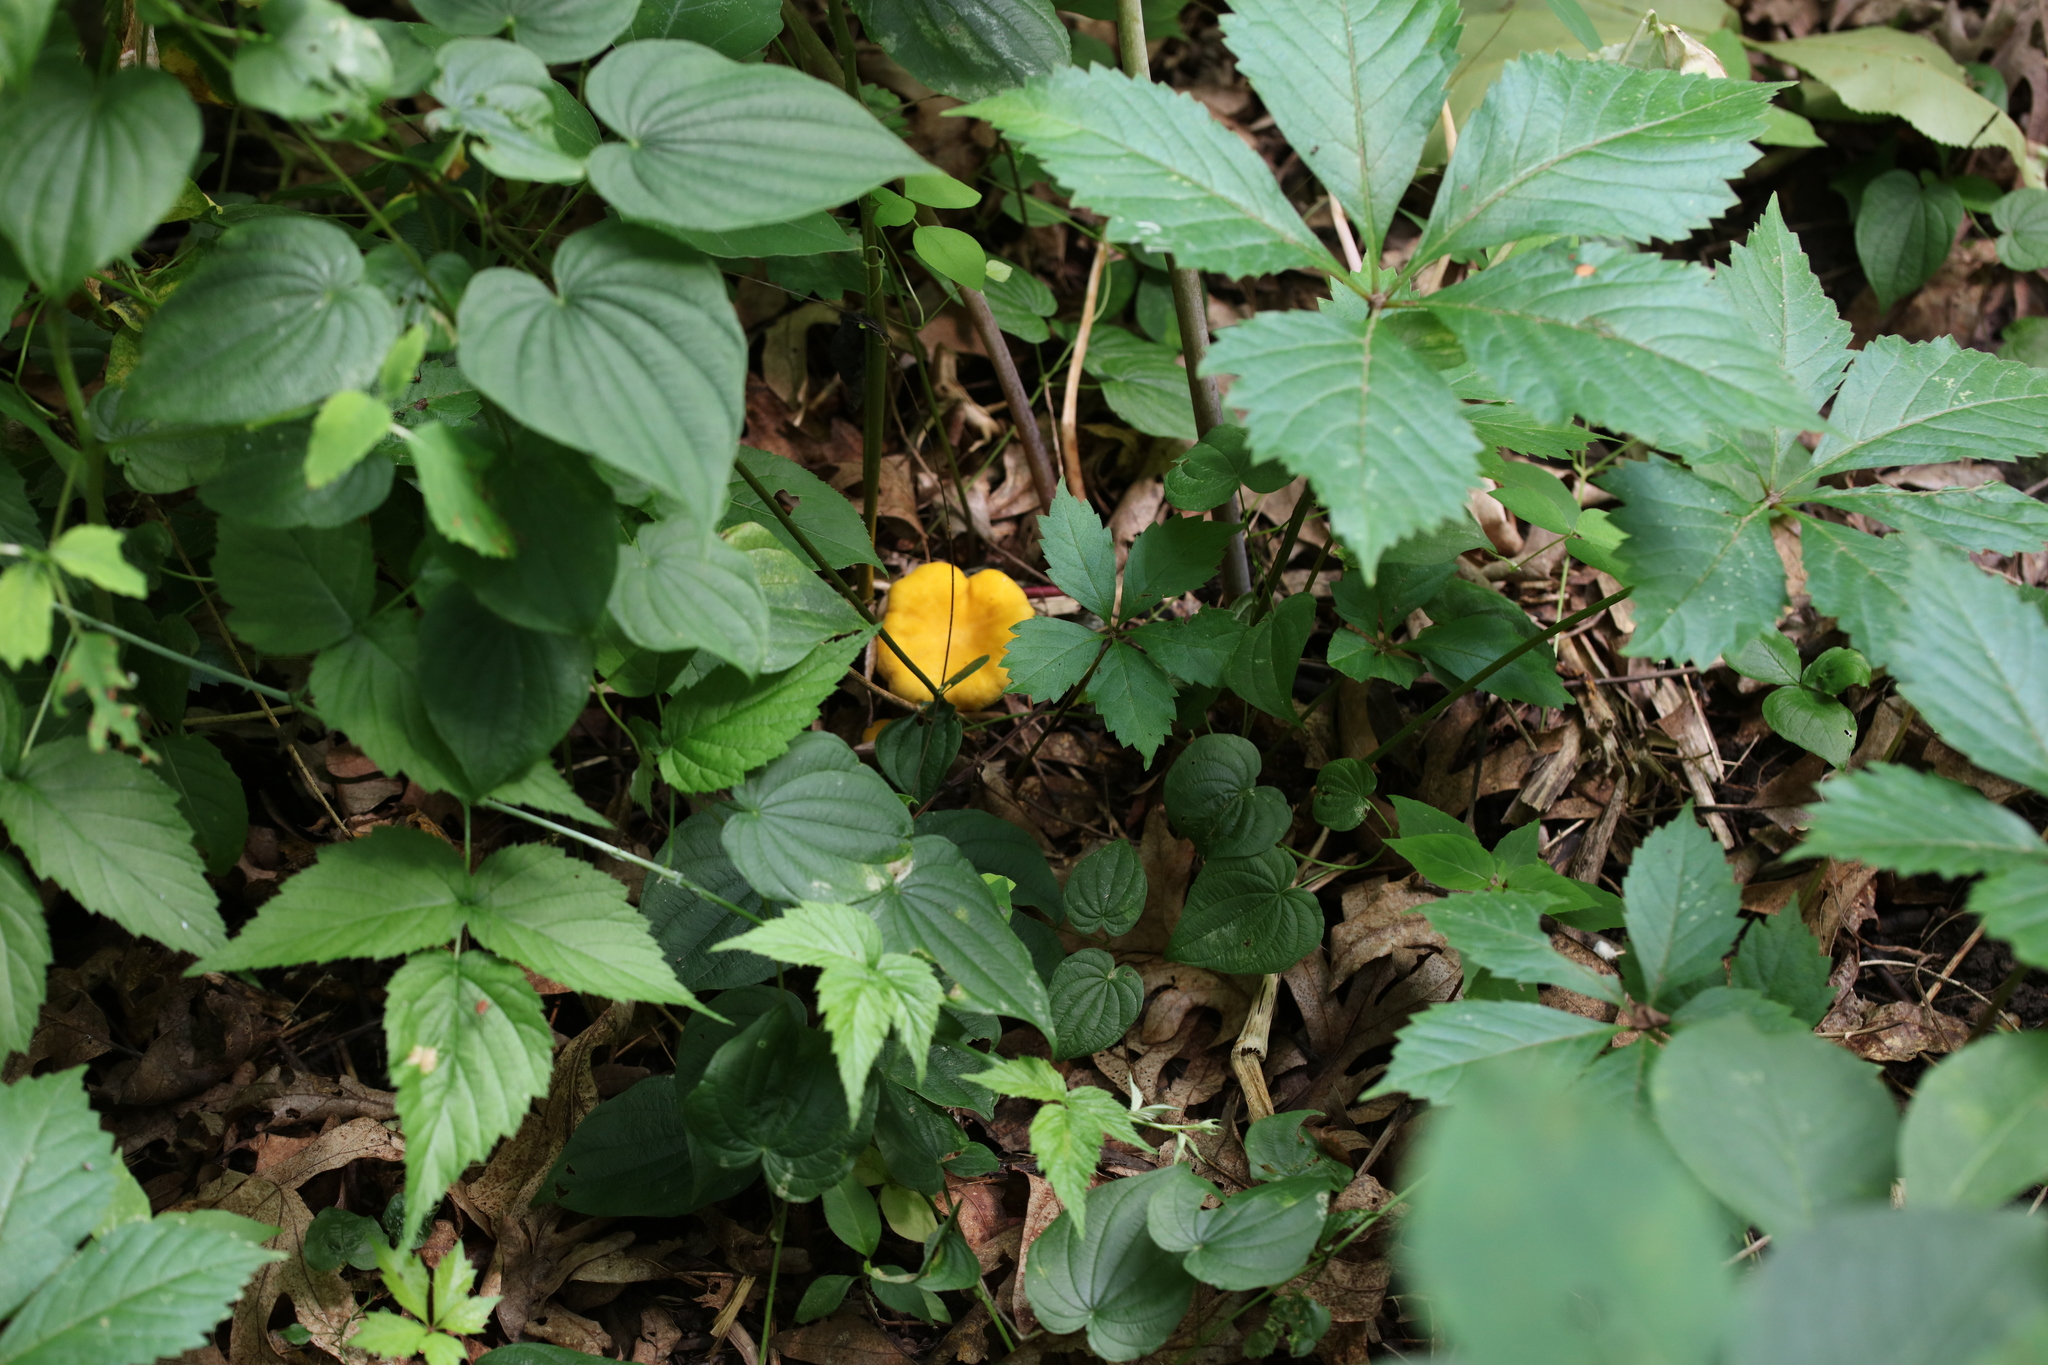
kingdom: Plantae
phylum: Tracheophyta
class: Liliopsida
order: Dioscoreales
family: Dioscoreaceae
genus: Dioscorea
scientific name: Dioscorea villosa
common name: Wild yam
